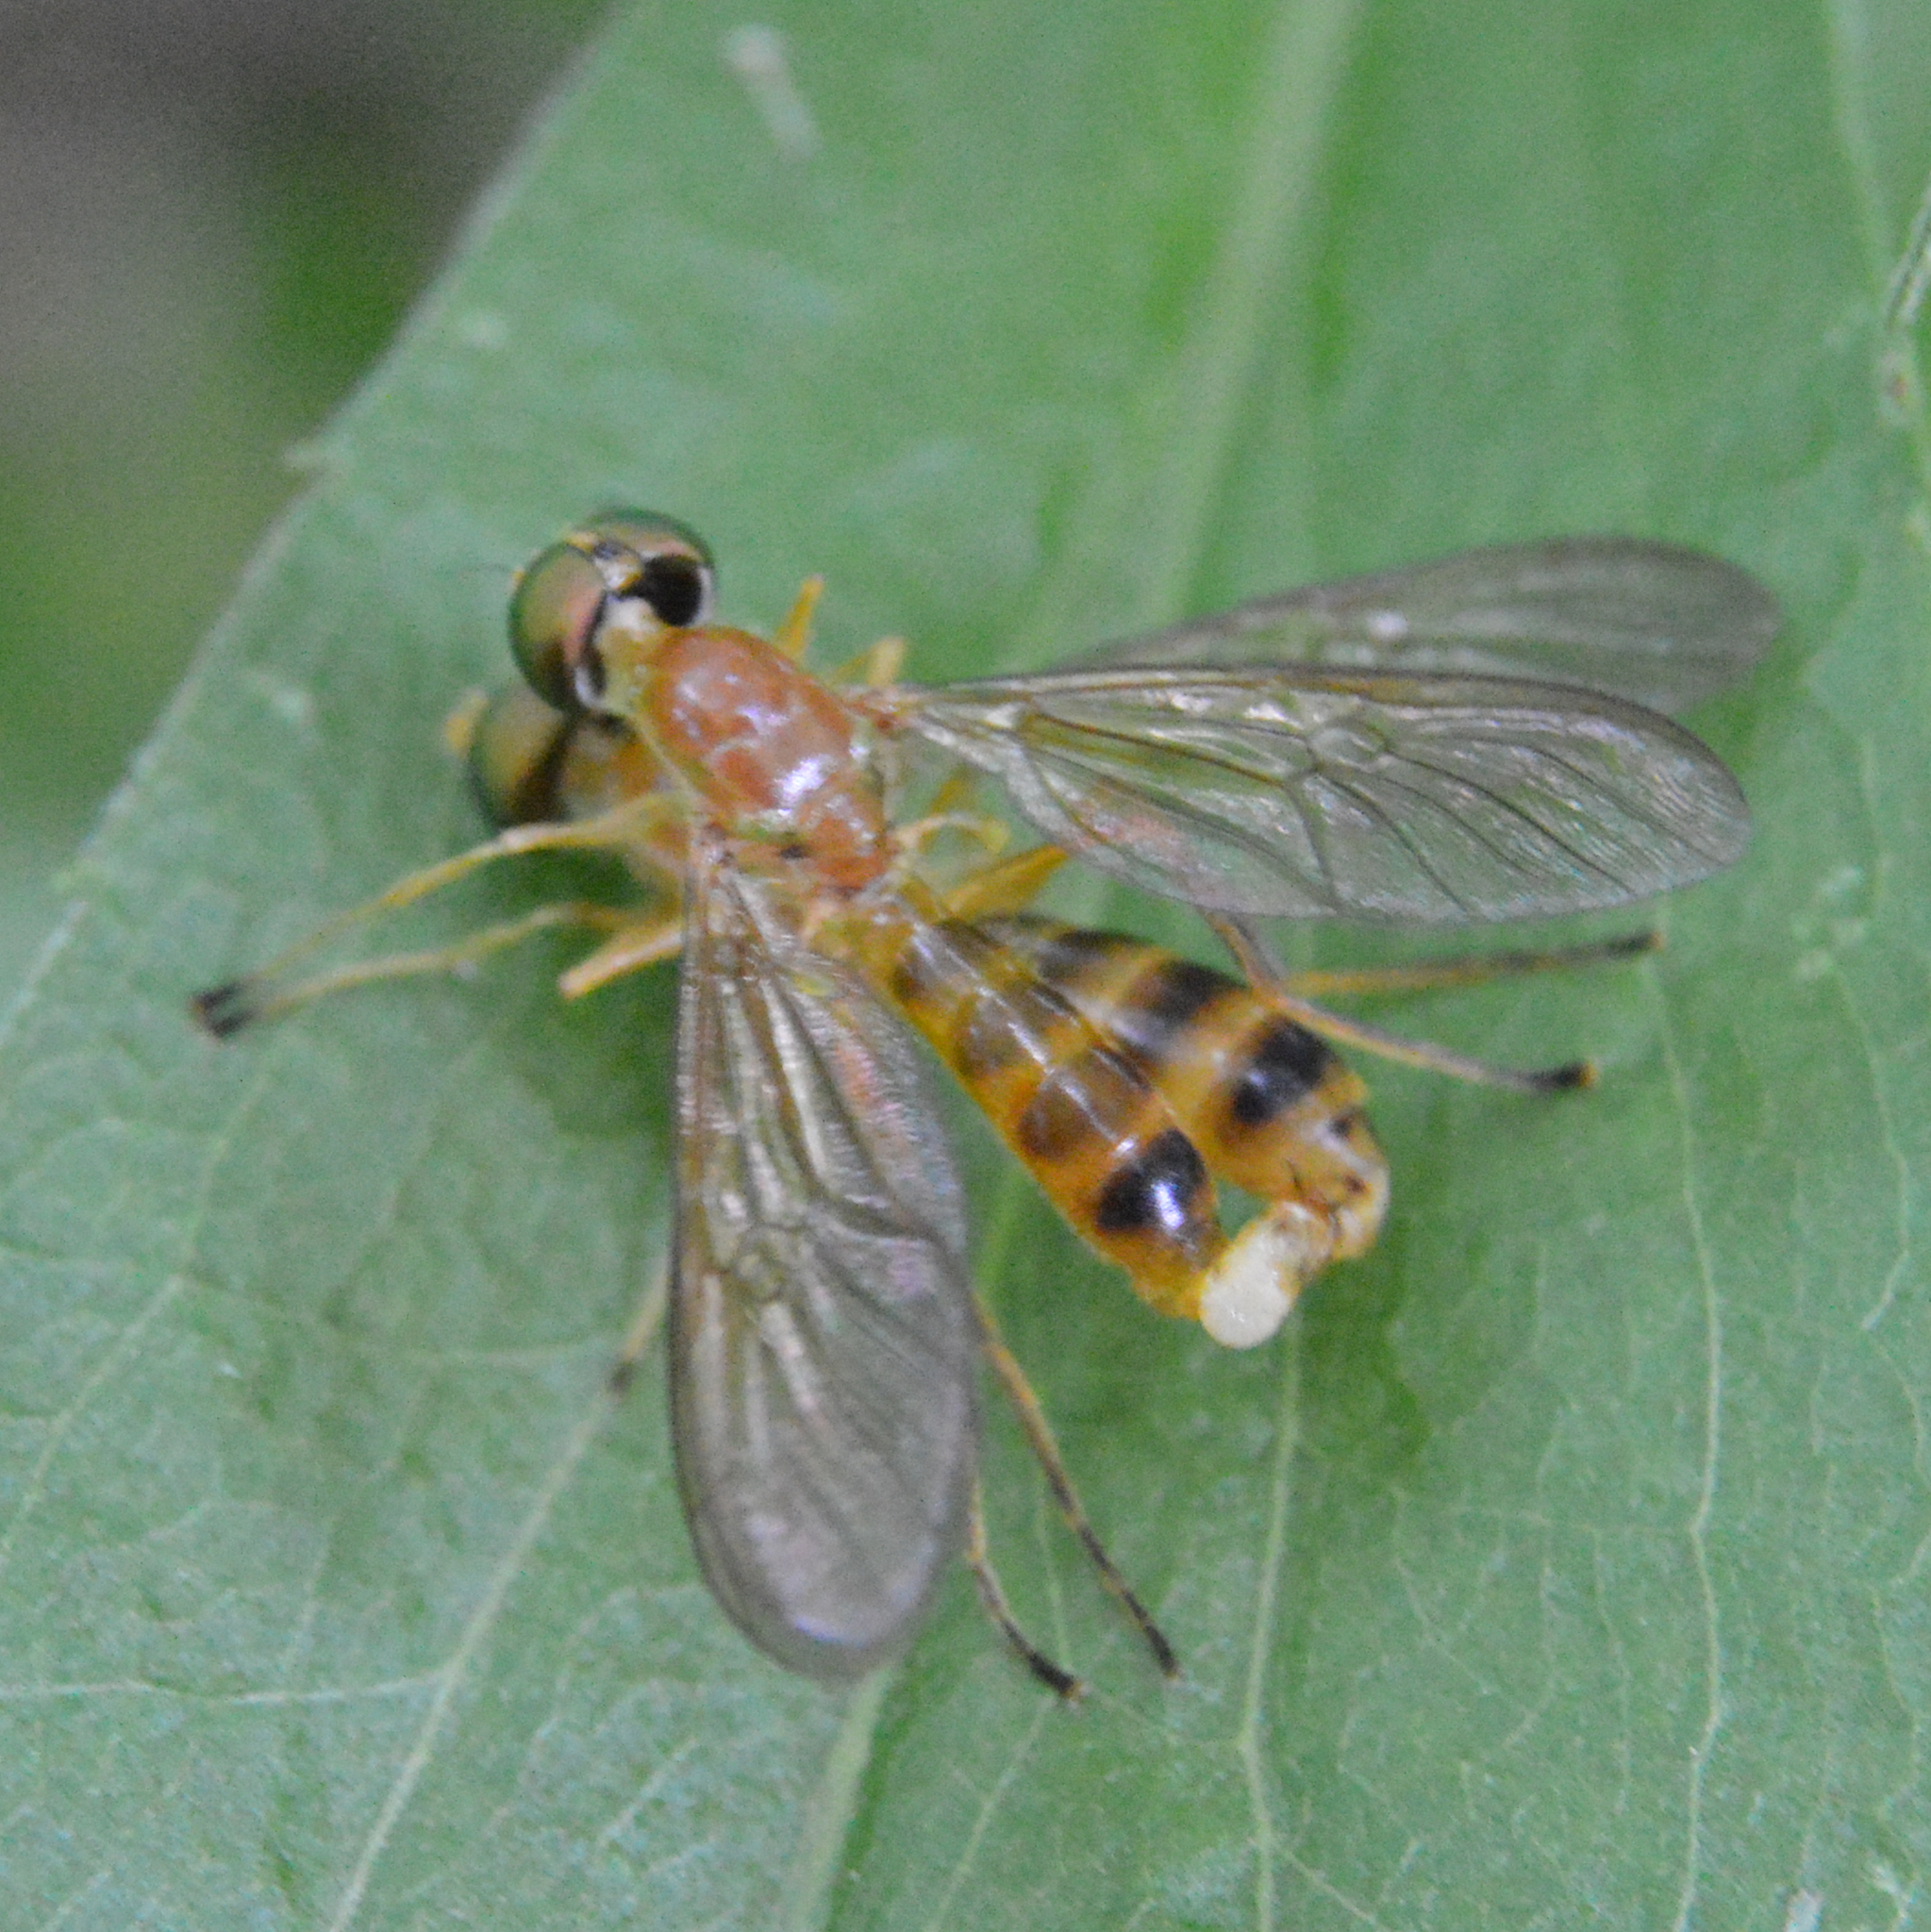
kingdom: Animalia
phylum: Arthropoda
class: Insecta
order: Diptera
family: Stratiomyidae
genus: Ptecticus
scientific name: Ptecticus trivittatus
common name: Compost fly
